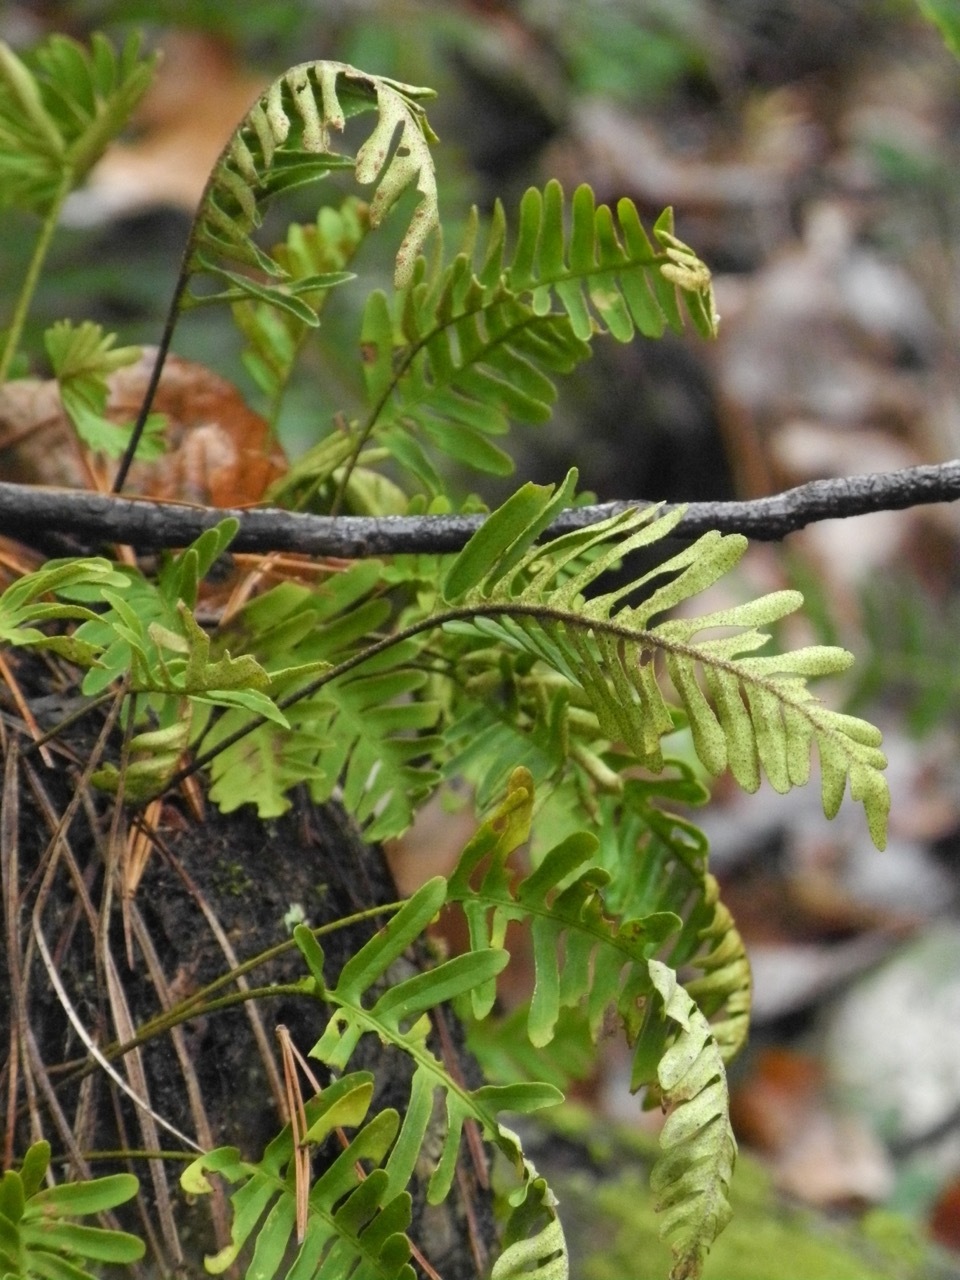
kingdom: Plantae
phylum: Tracheophyta
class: Polypodiopsida
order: Polypodiales
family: Polypodiaceae
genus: Pleopeltis
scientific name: Pleopeltis michauxiana
